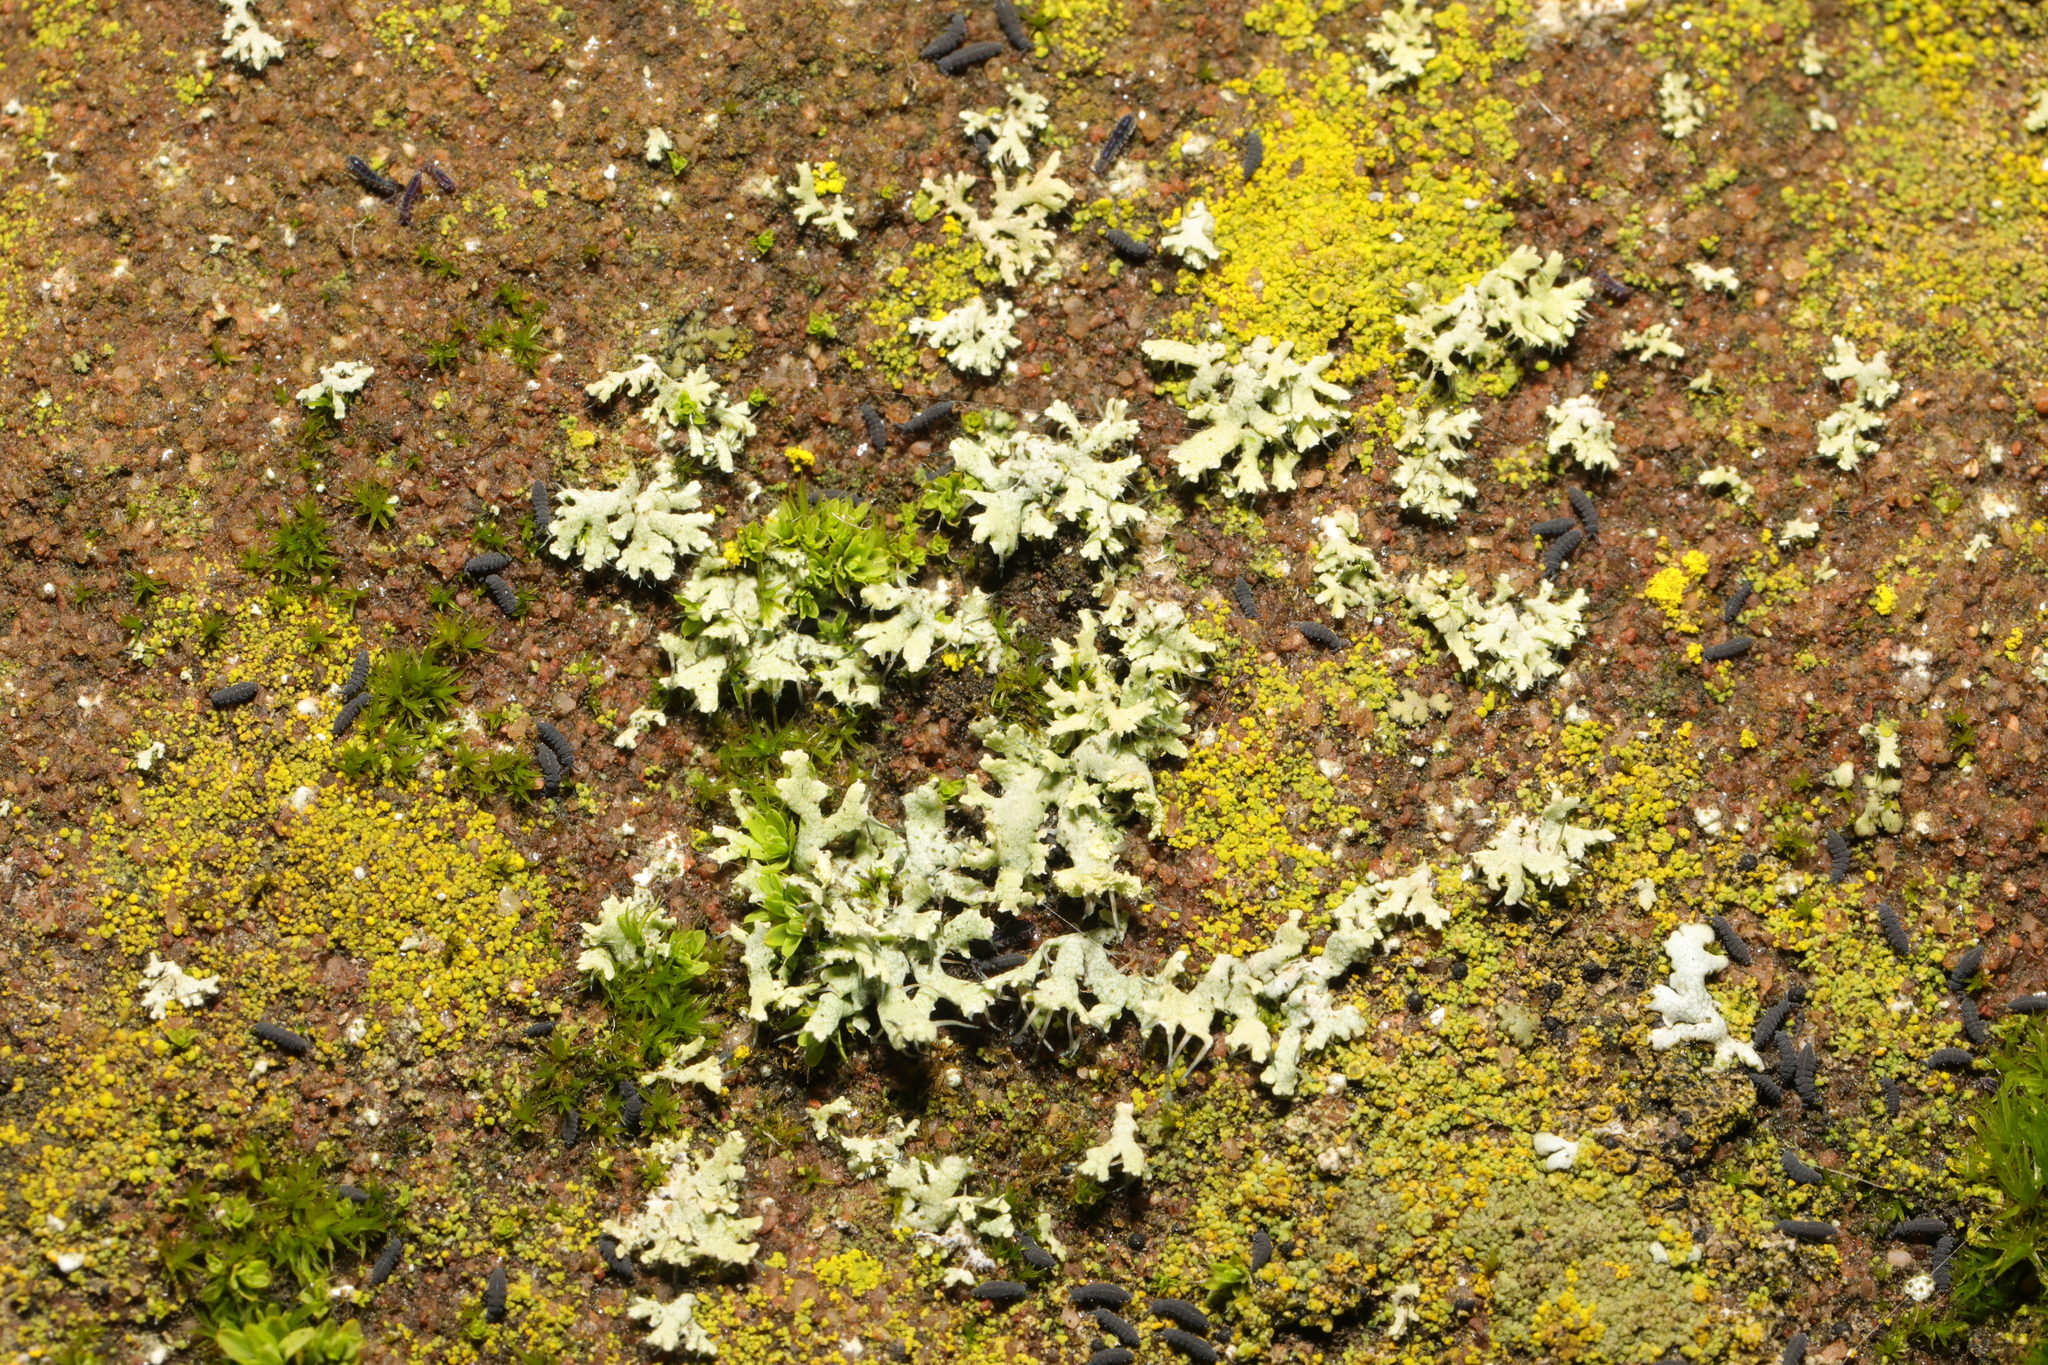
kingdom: Fungi
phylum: Ascomycota
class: Lecanoromycetes
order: Caliciales
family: Physciaceae
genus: Physcia
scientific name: Physcia tenella
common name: Fringed rosette lichen
